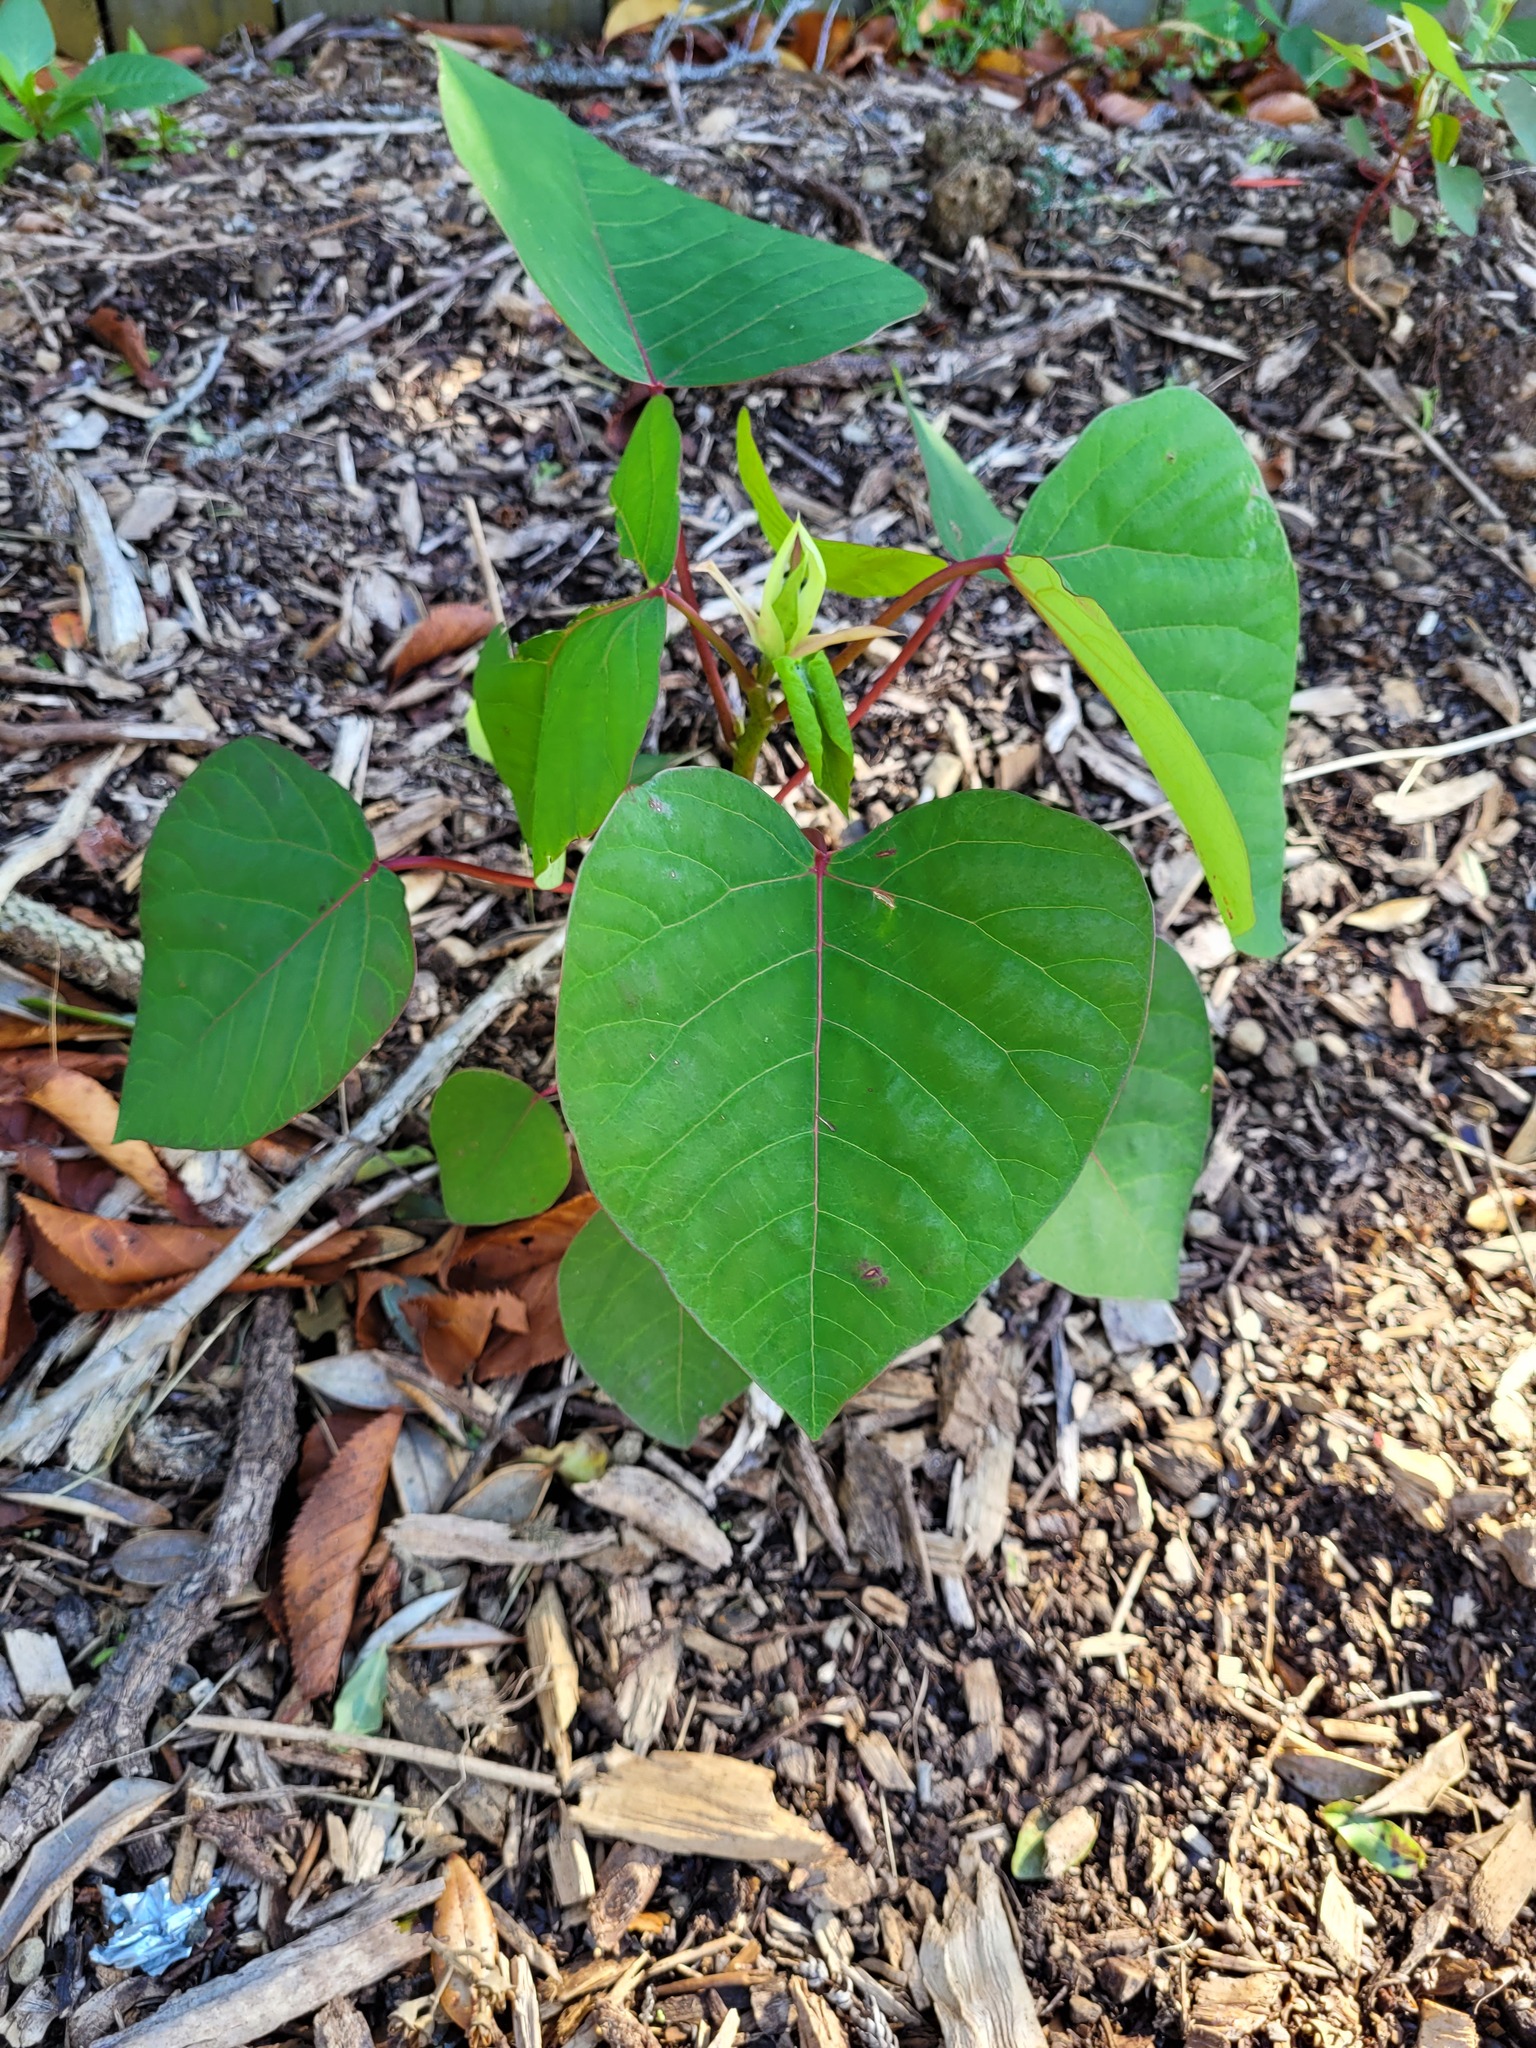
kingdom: Plantae
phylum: Tracheophyta
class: Magnoliopsida
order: Malpighiales
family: Euphorbiaceae
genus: Homalanthus
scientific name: Homalanthus populifolius
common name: Queensland poplar
